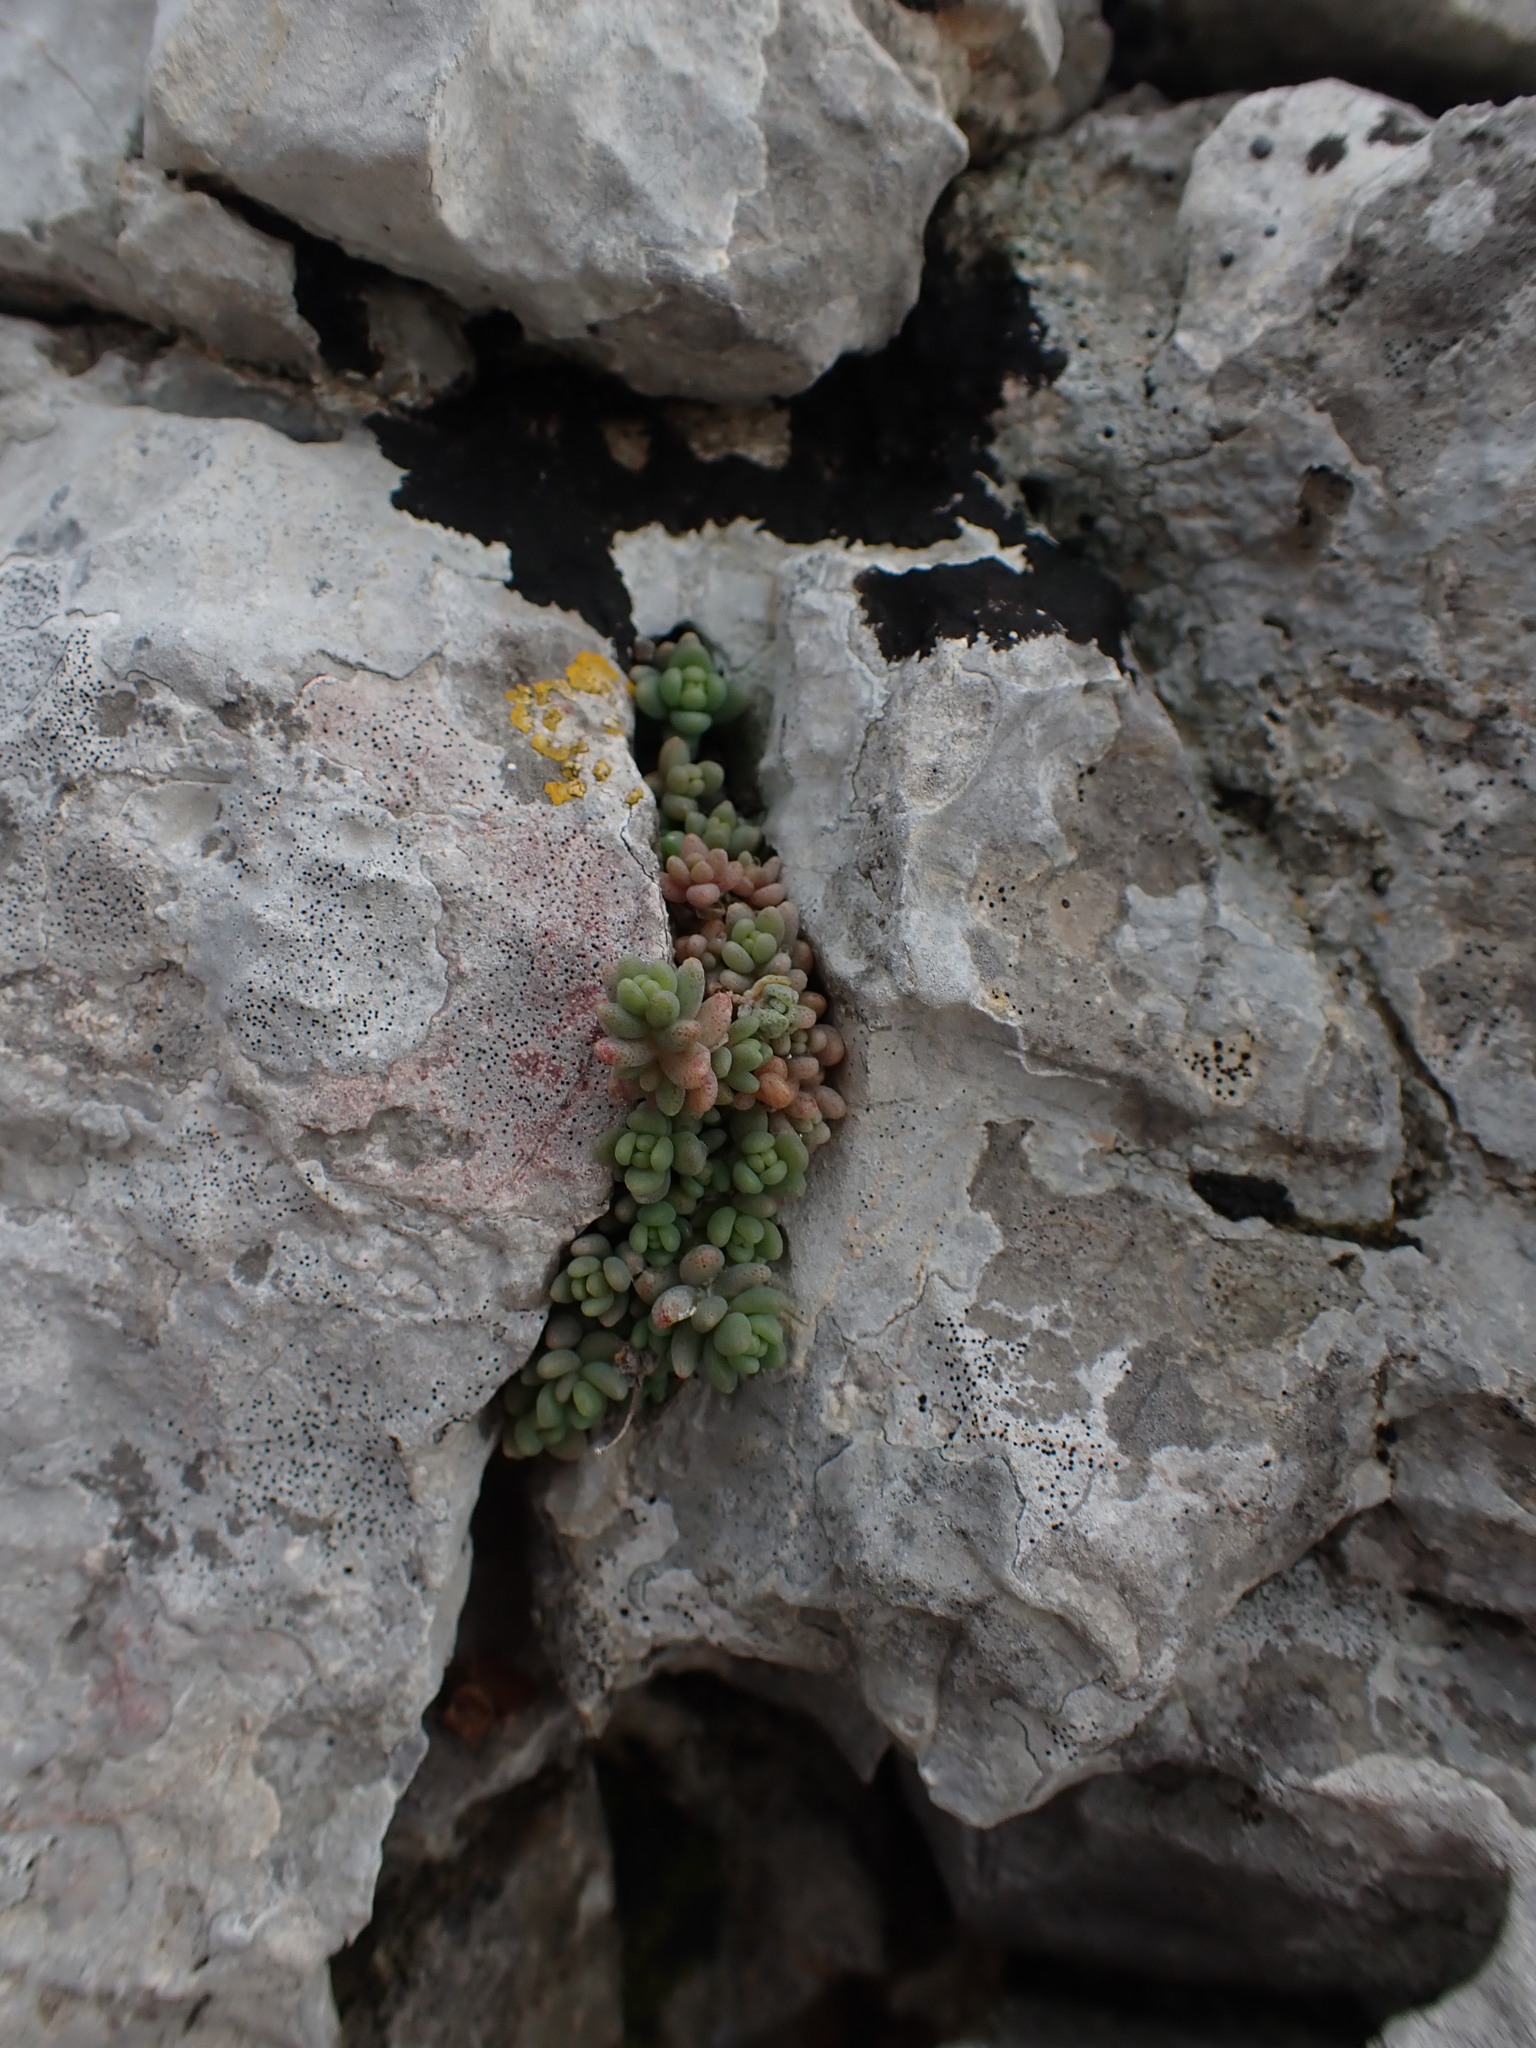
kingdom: Plantae
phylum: Tracheophyta
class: Magnoliopsida
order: Saxifragales
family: Crassulaceae
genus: Sedum
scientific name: Sedum dasyphyllum
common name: Thick-leaf stonecrop
